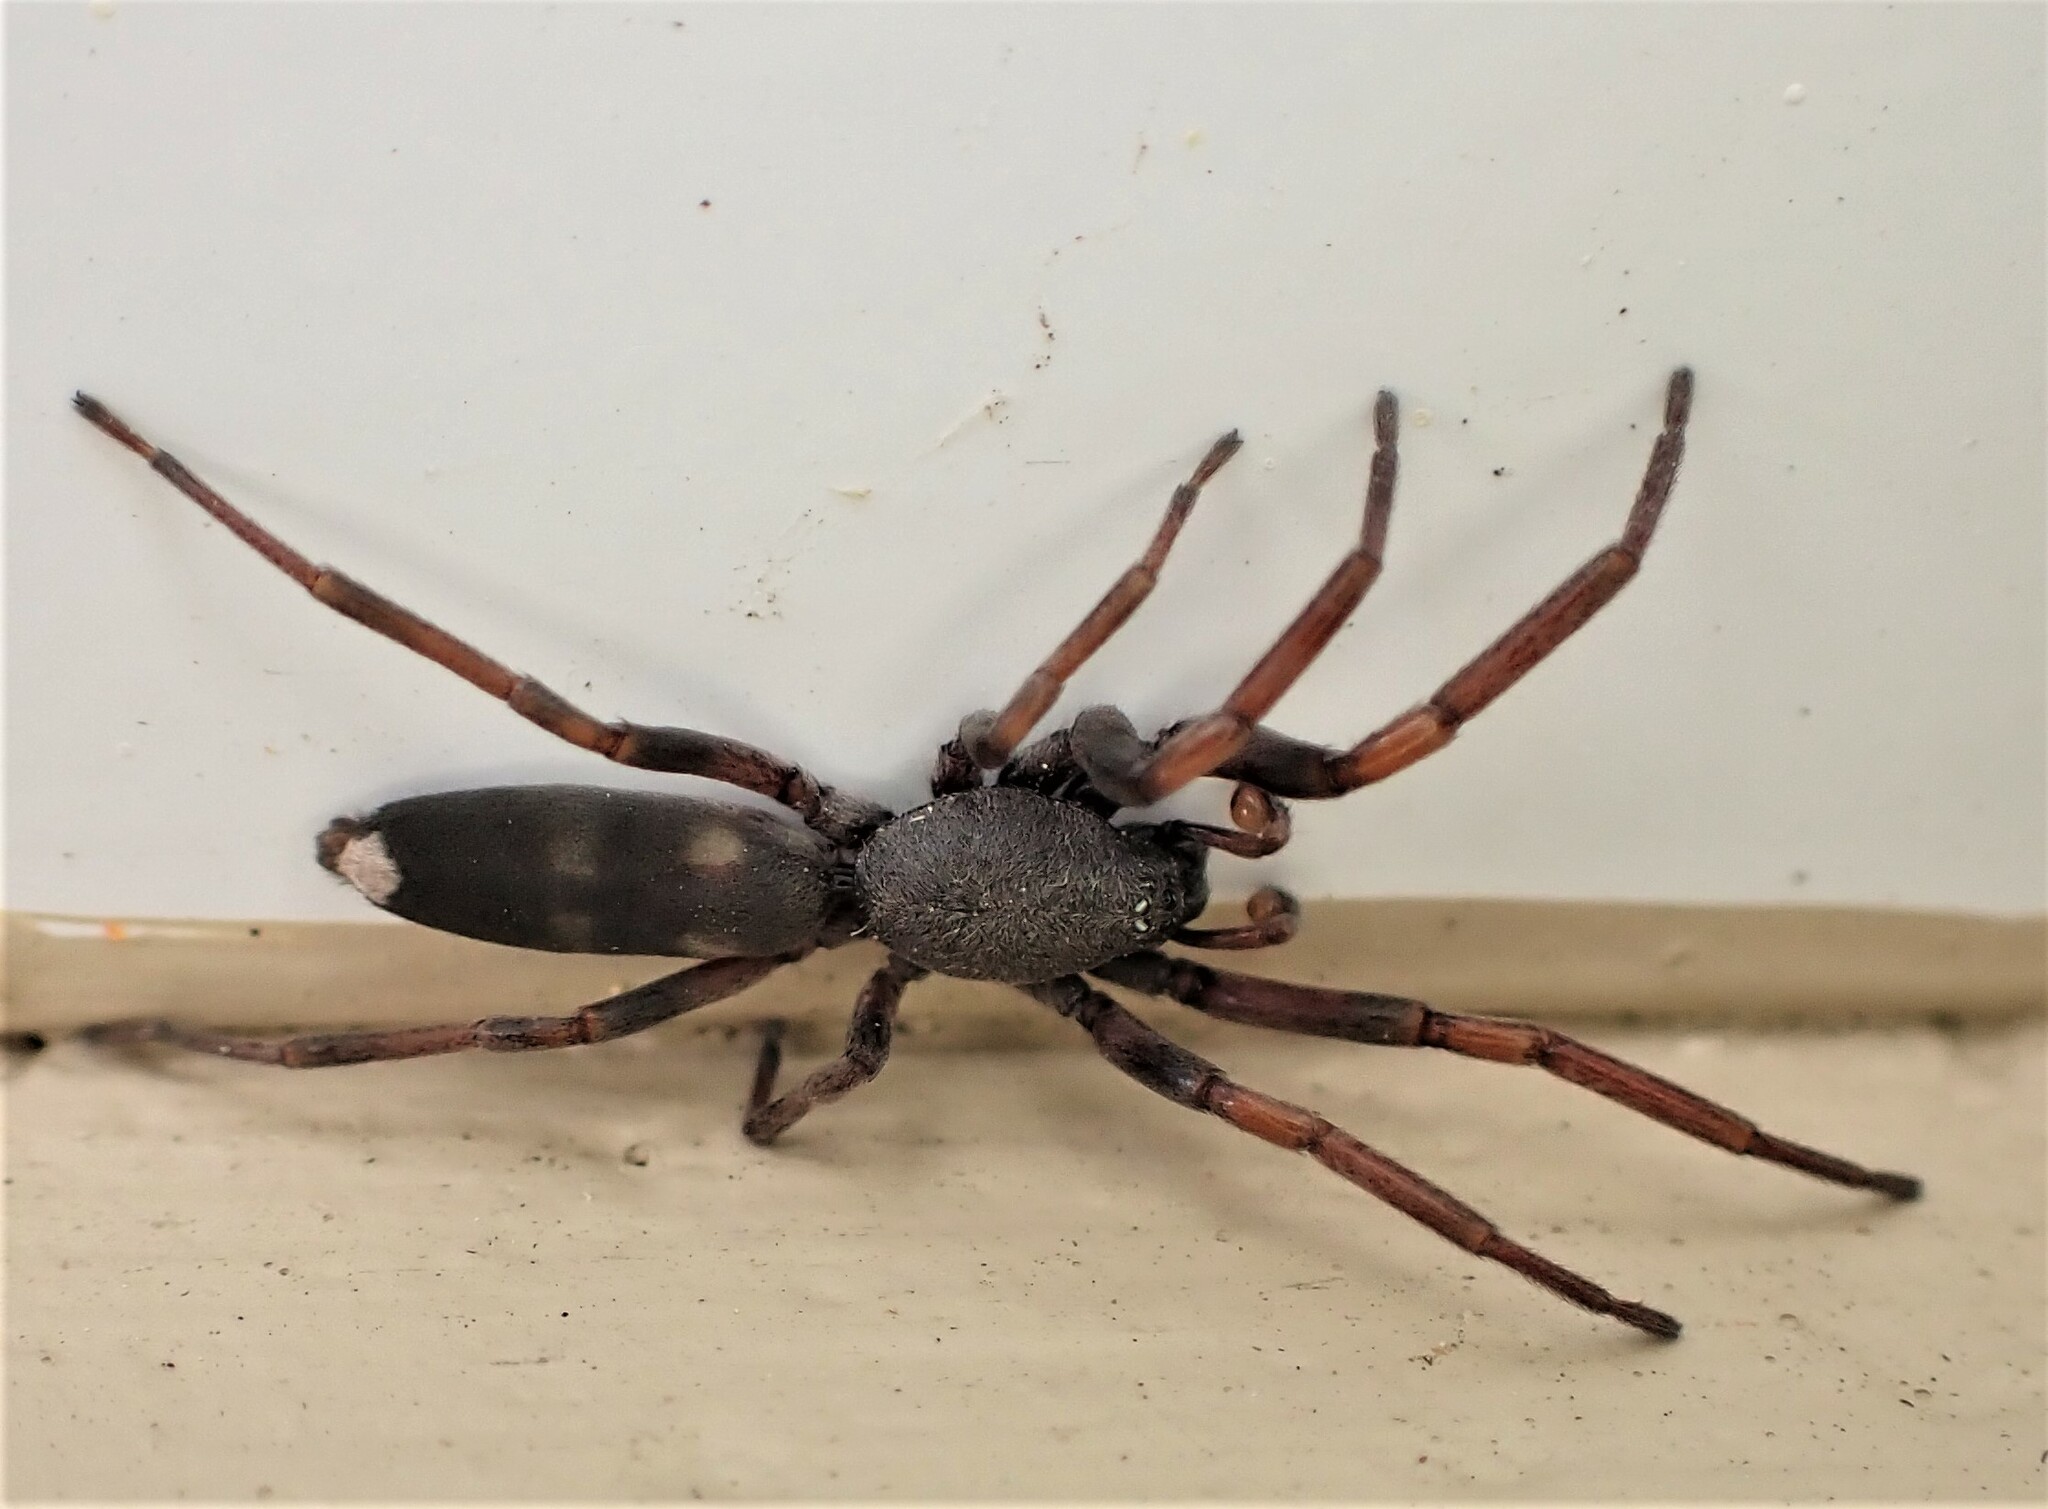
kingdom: Animalia
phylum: Arthropoda
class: Arachnida
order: Araneae
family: Lamponidae
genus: Lampona
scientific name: Lampona cylindrata
